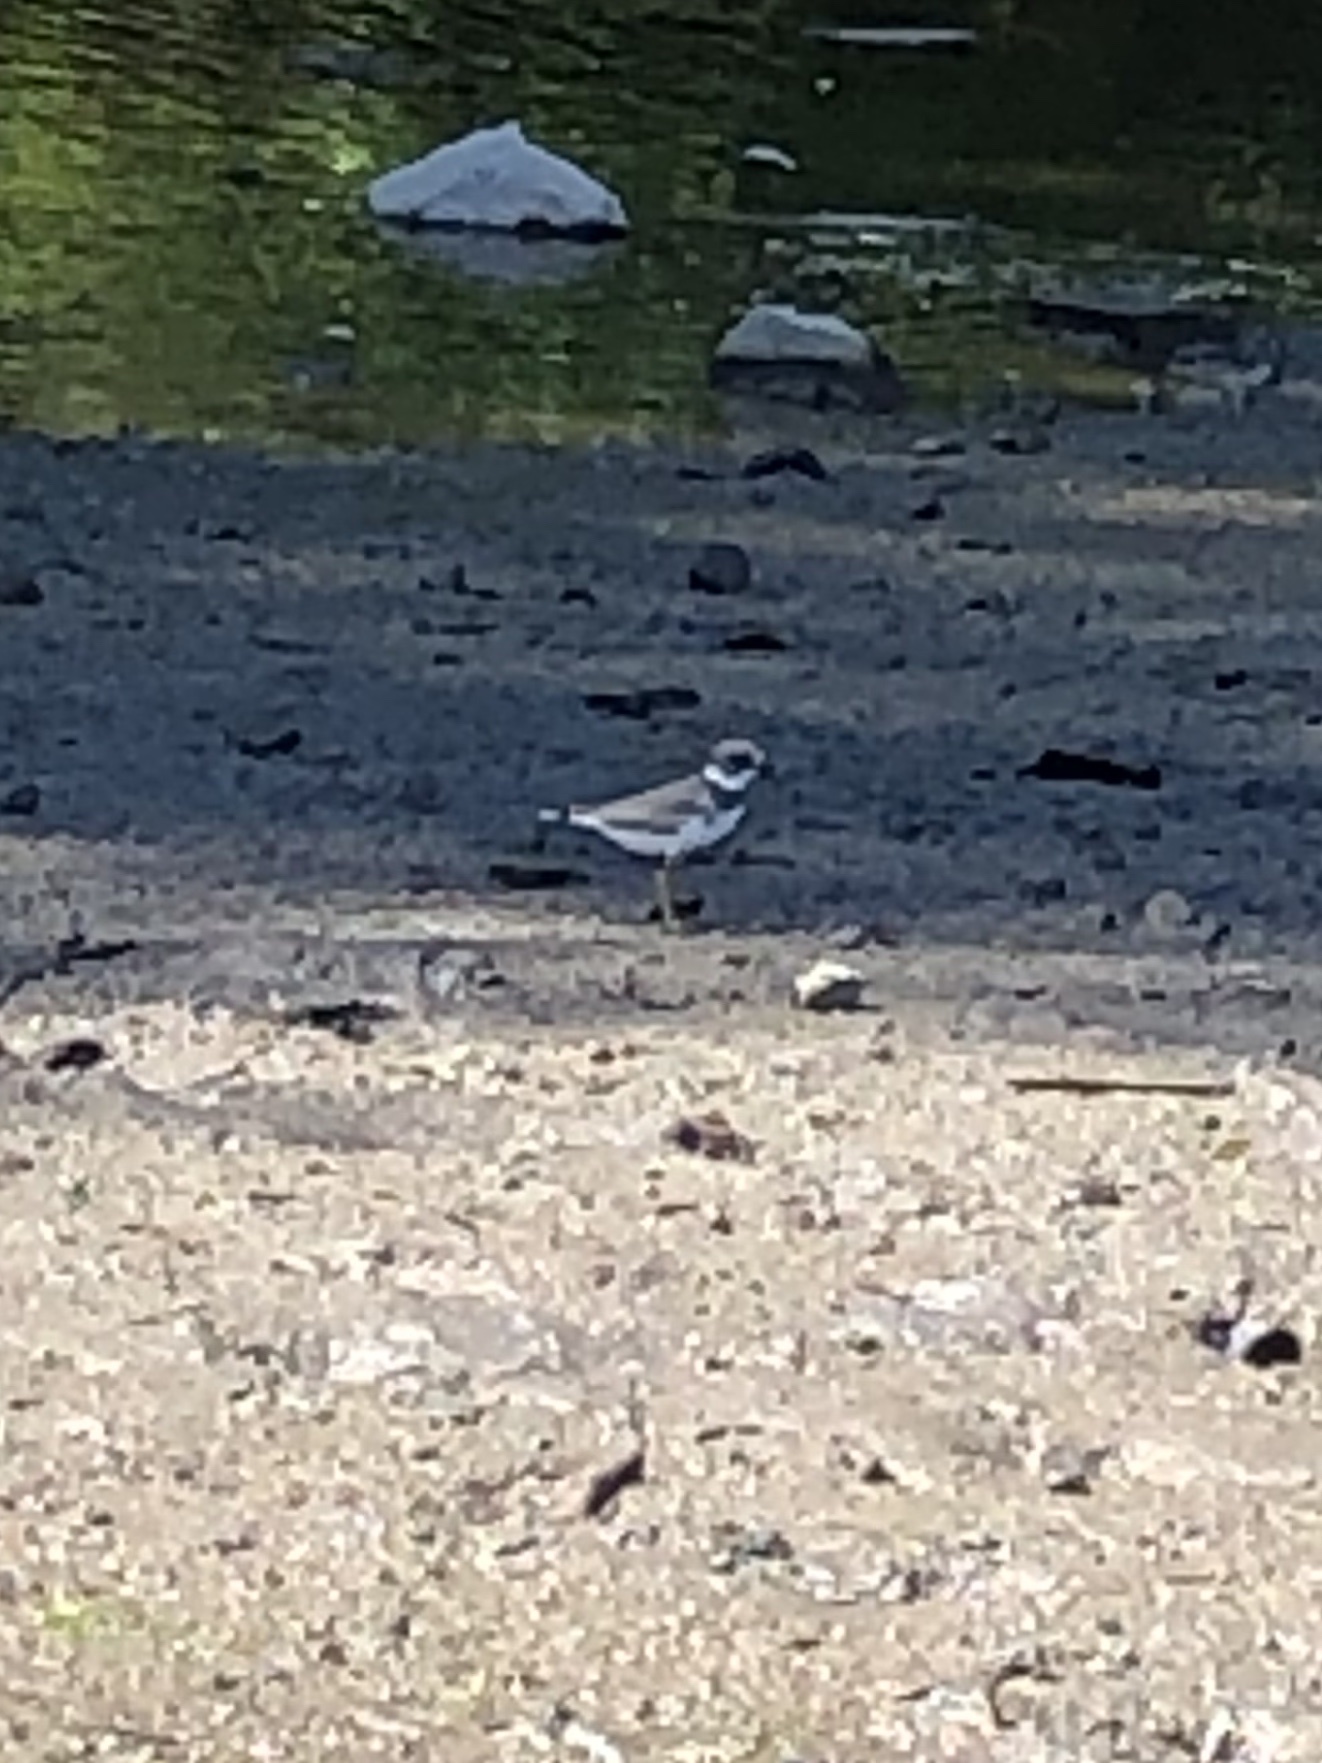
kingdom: Animalia
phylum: Chordata
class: Aves
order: Charadriiformes
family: Charadriidae
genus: Charadrius
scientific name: Charadrius semipalmatus
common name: Semipalmated plover
